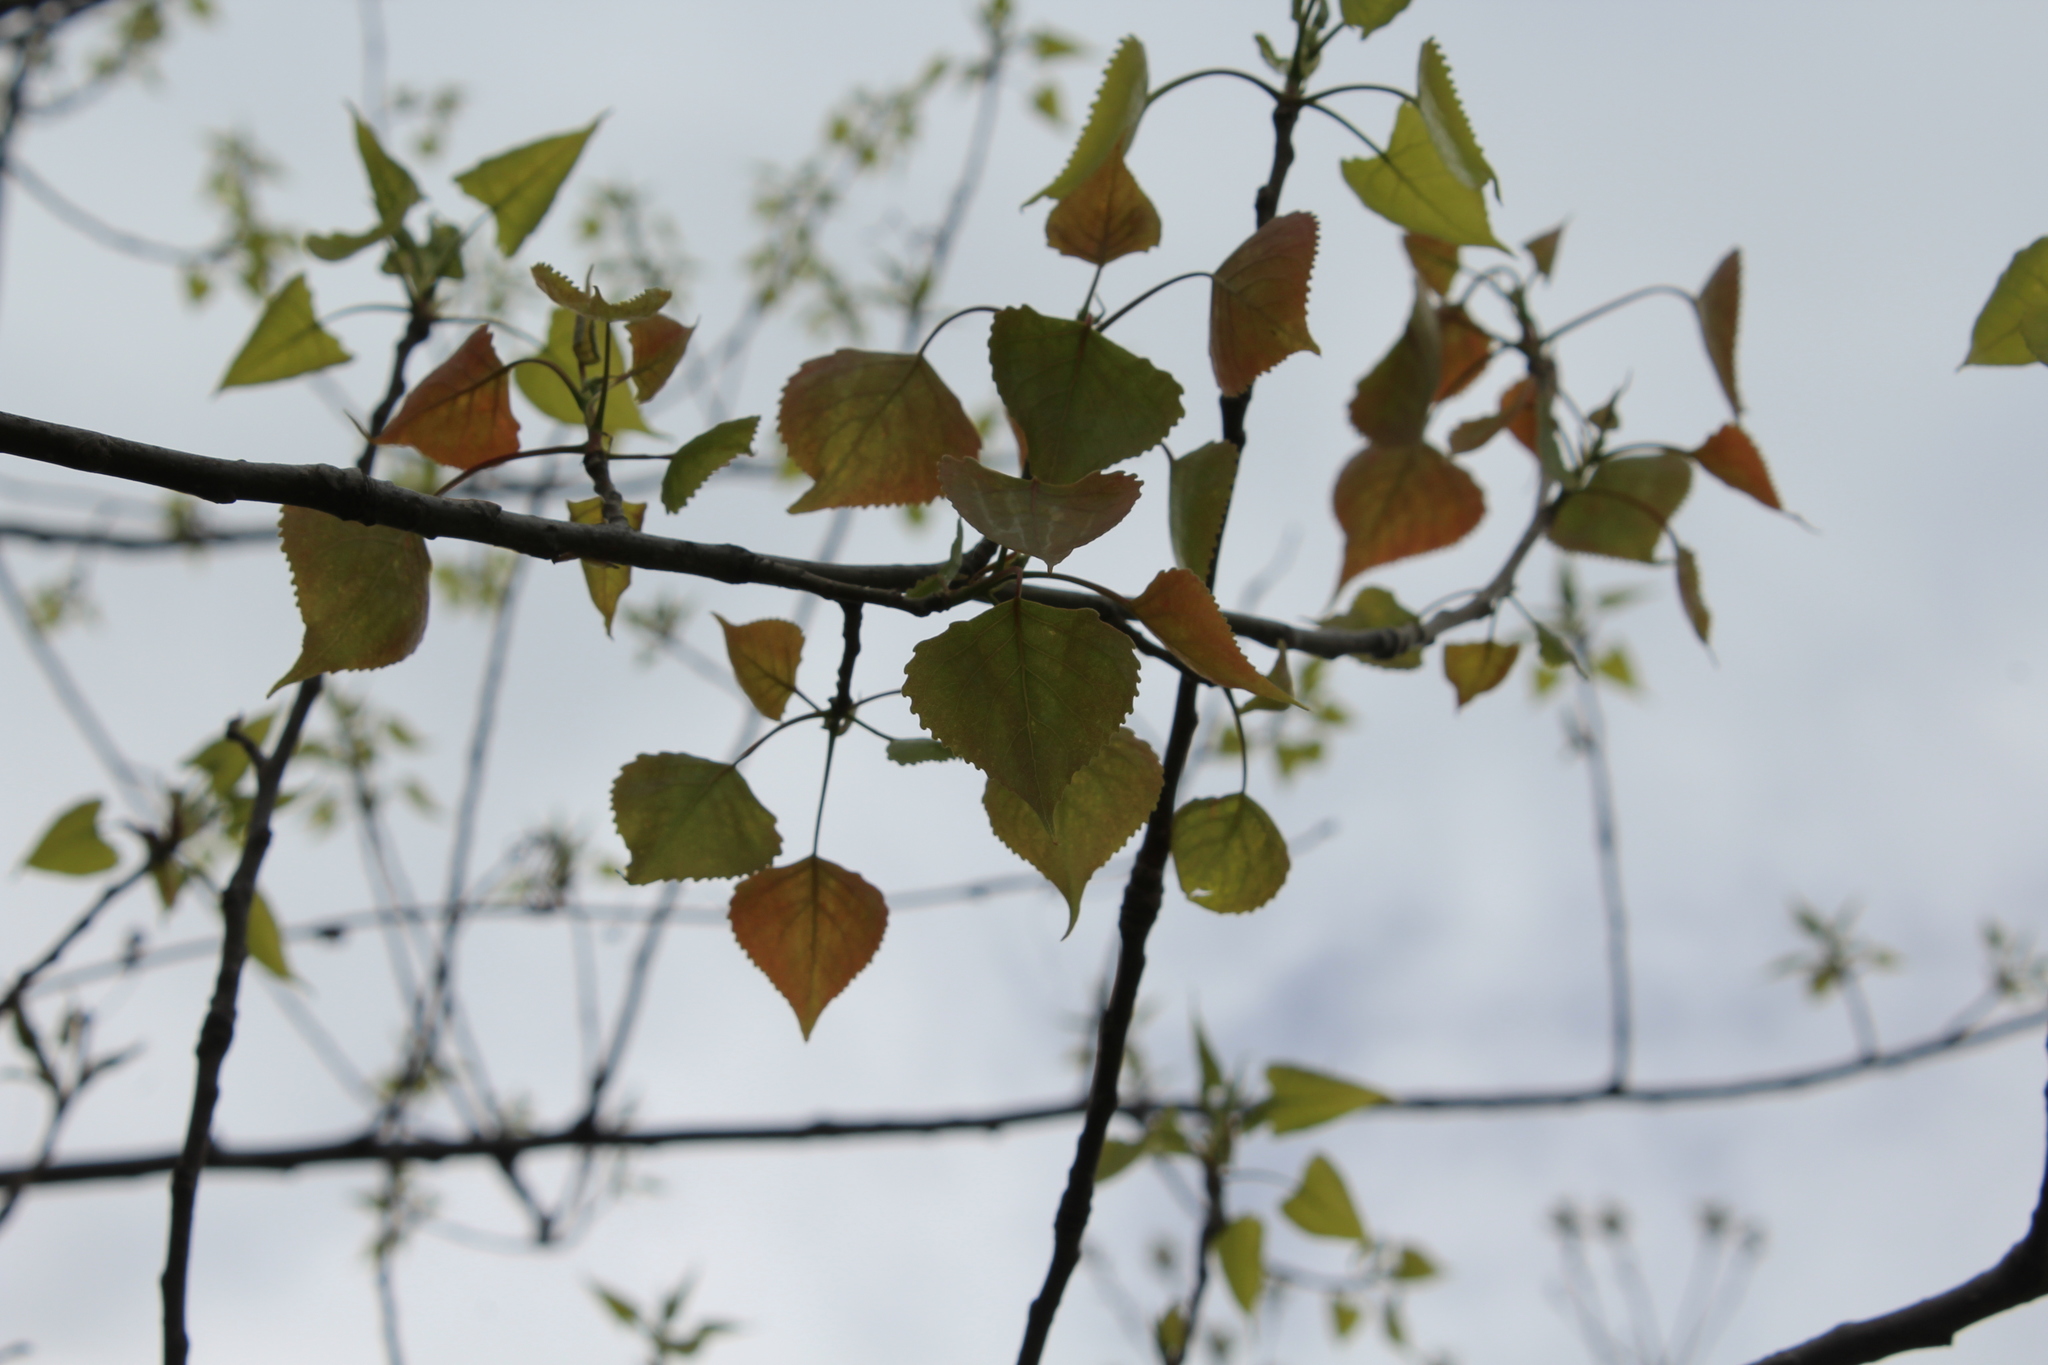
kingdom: Plantae
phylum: Tracheophyta
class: Magnoliopsida
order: Malpighiales
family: Salicaceae
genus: Populus
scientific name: Populus deltoides
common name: Eastern cottonwood
